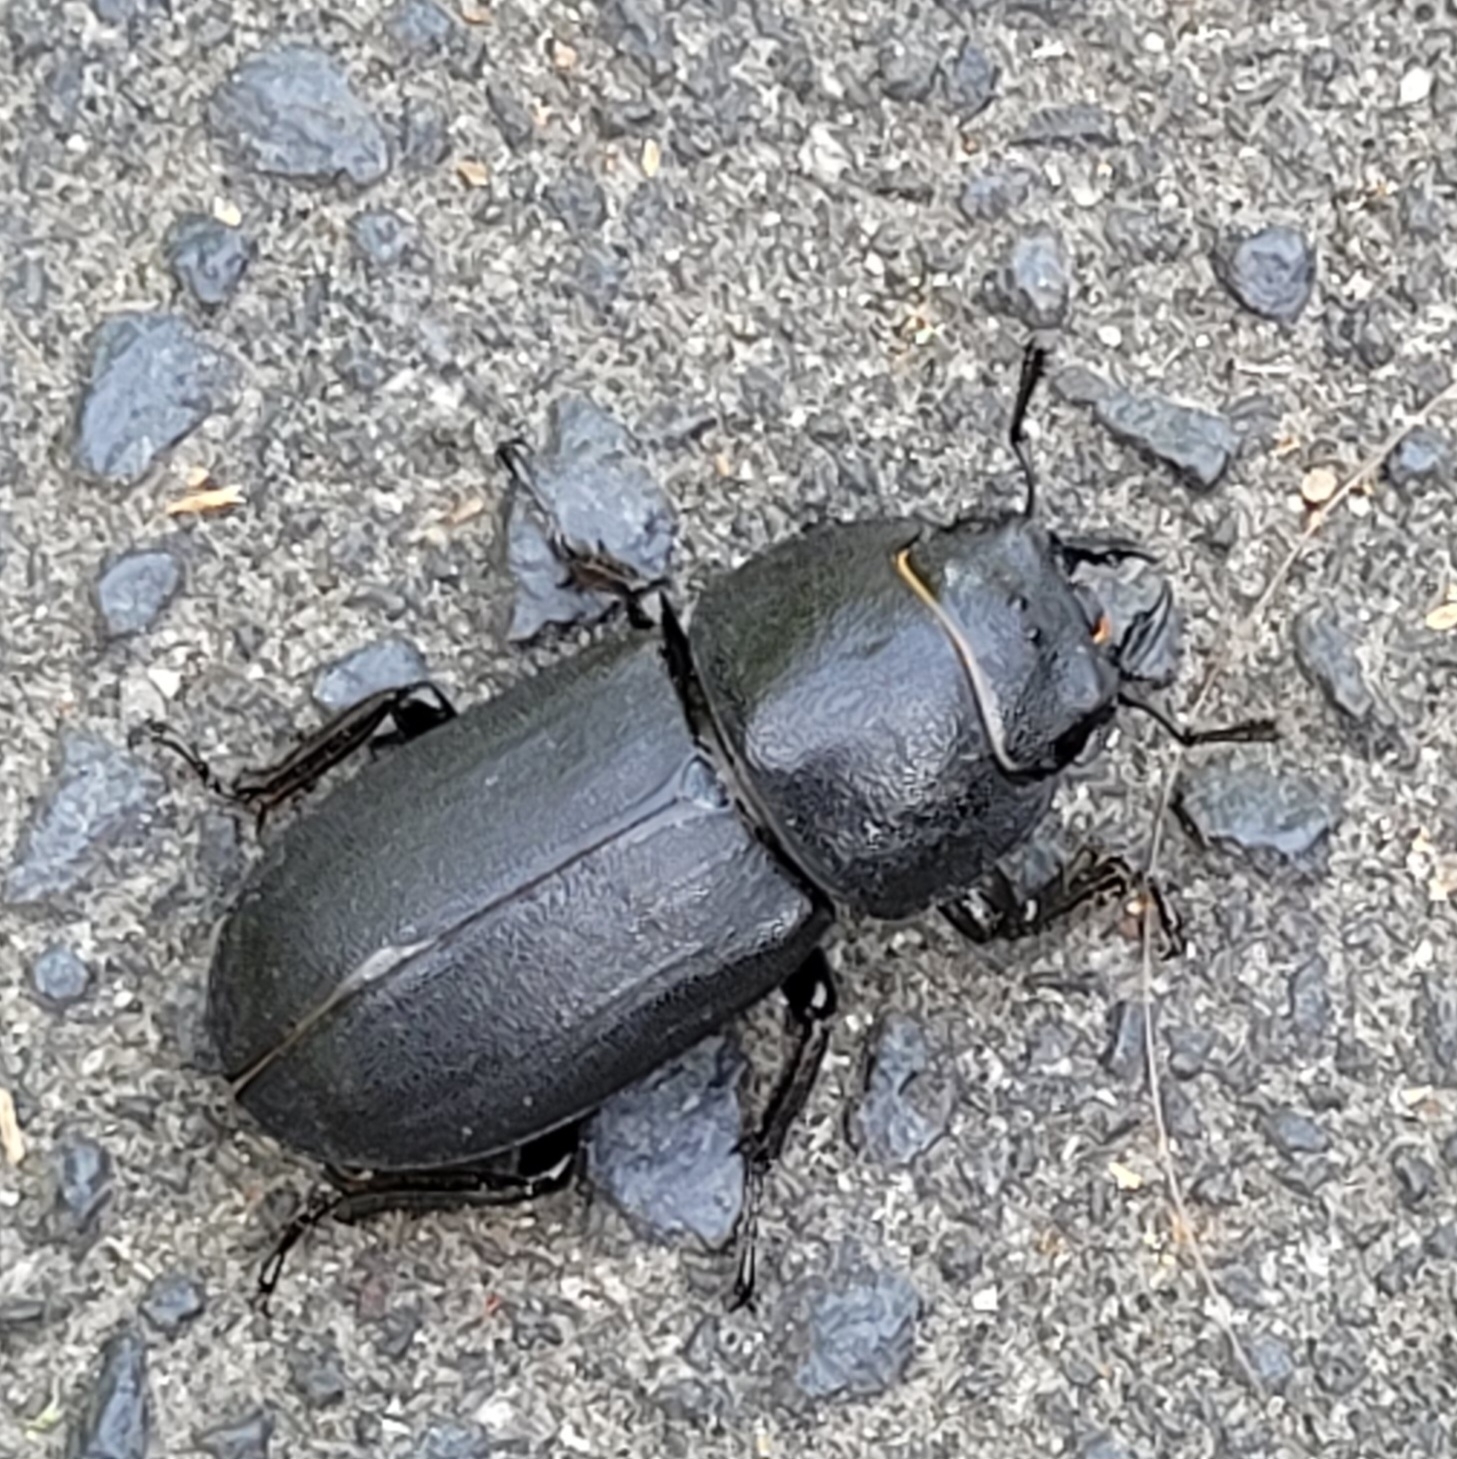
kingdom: Animalia
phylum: Arthropoda
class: Insecta
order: Coleoptera
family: Lucanidae
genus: Dorcus
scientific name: Dorcus parallelipipedus
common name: Lesser stag beetle
